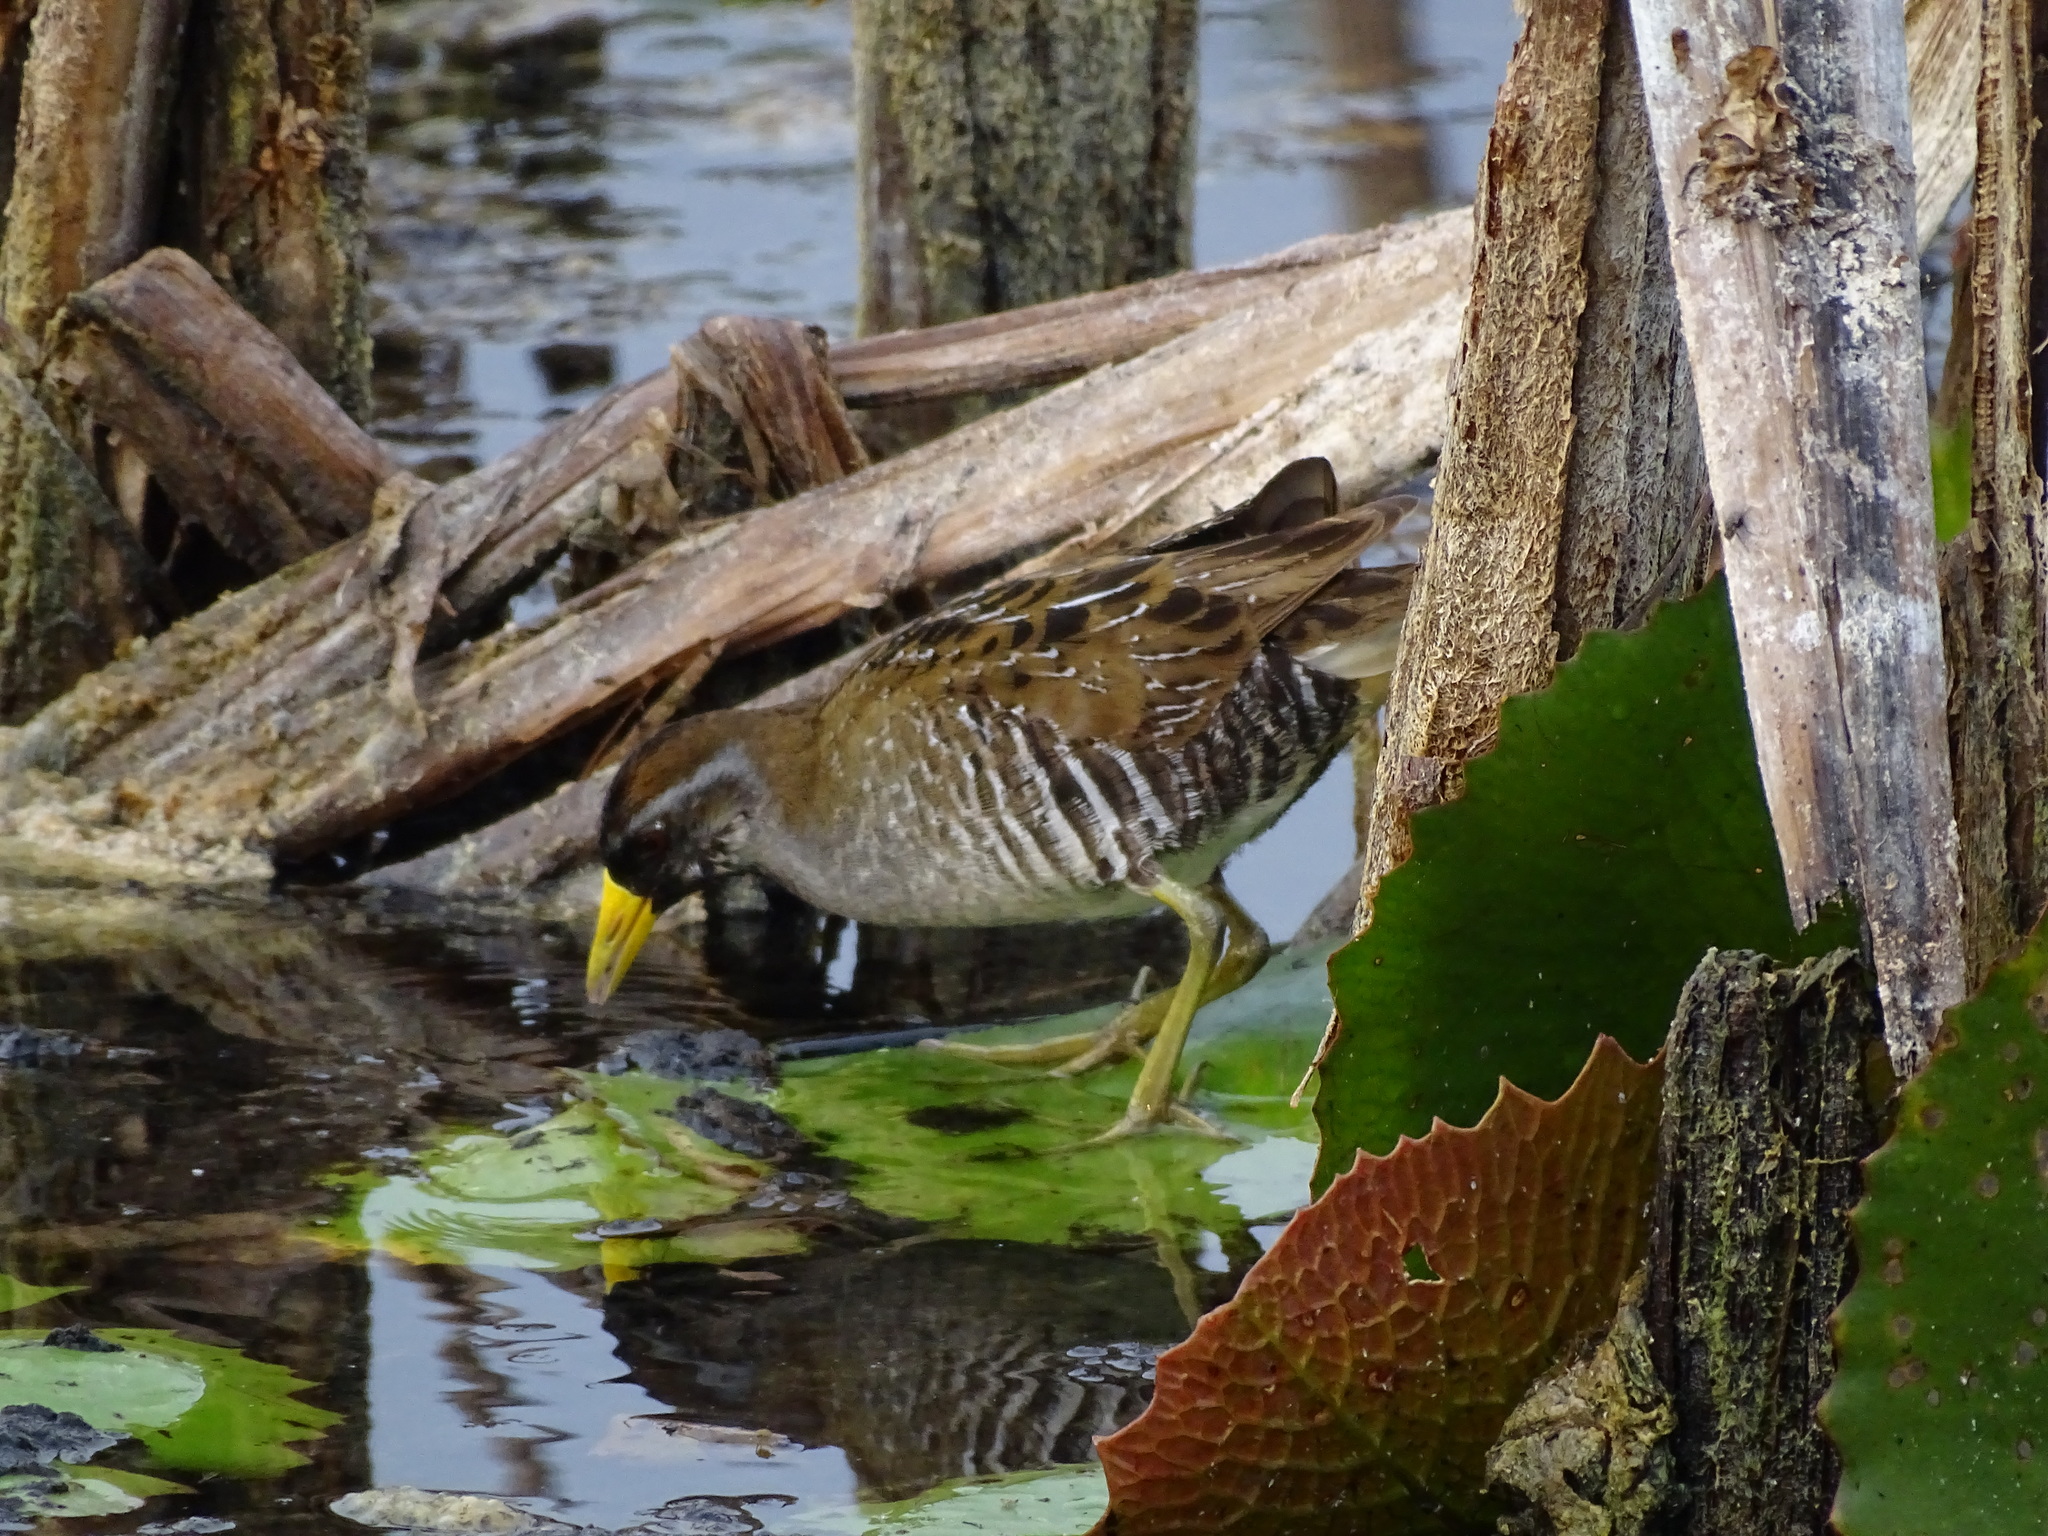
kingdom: Animalia
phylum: Chordata
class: Aves
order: Gruiformes
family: Rallidae
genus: Porzana
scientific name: Porzana carolina
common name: Sora
